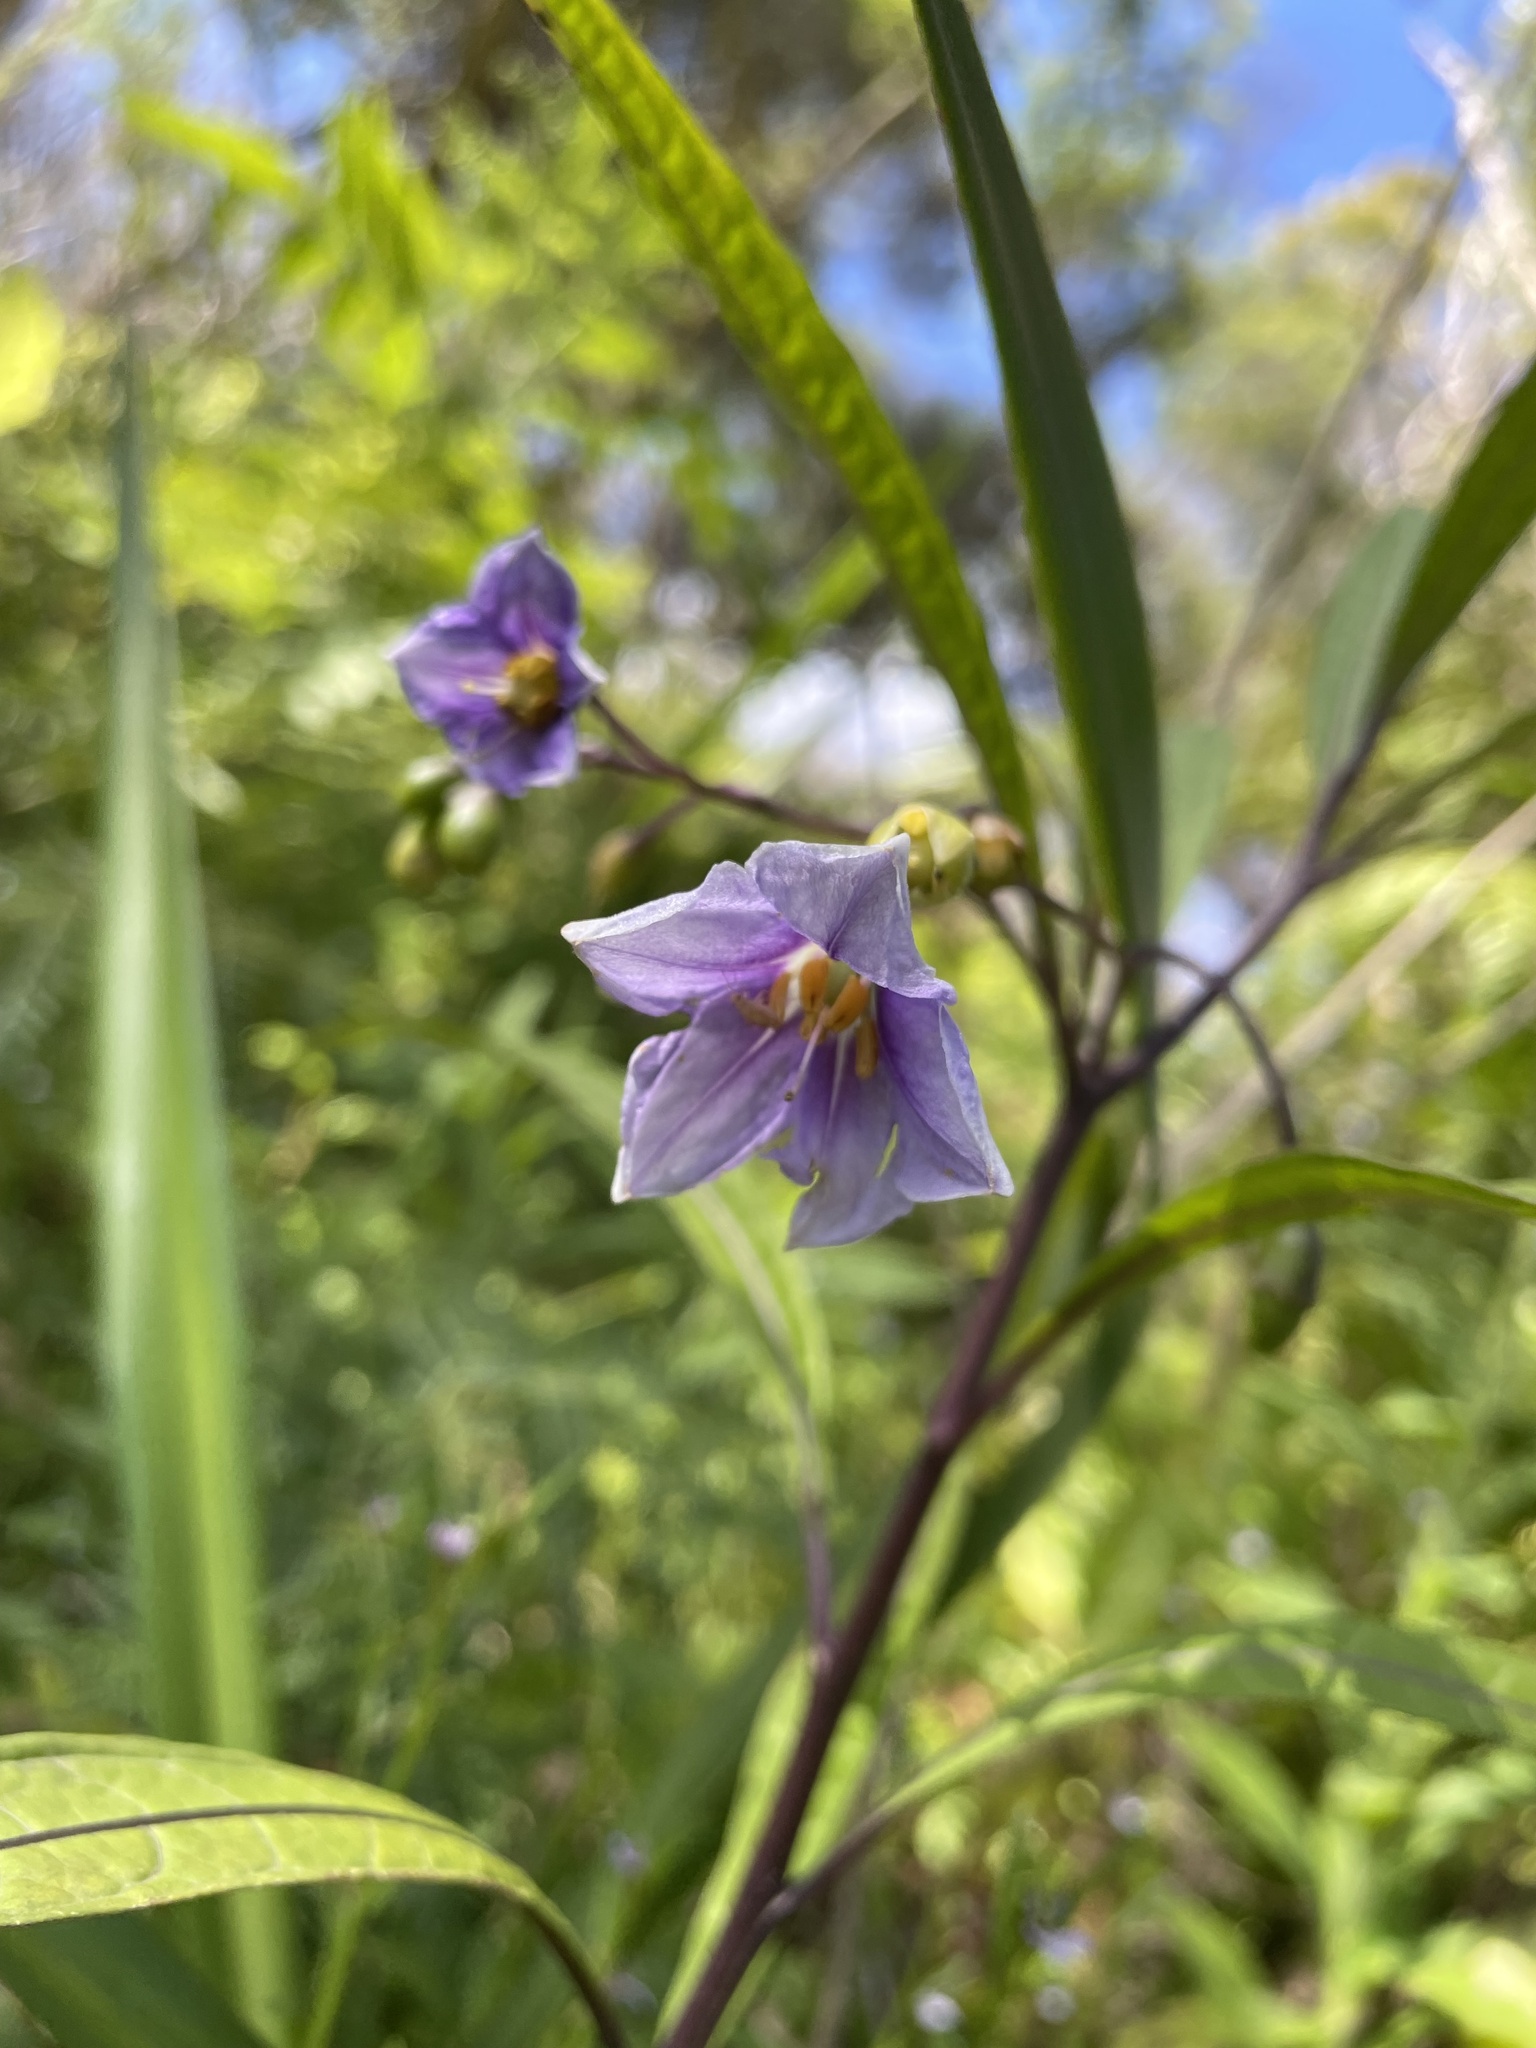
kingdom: Plantae
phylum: Tracheophyta
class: Magnoliopsida
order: Solanales
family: Solanaceae
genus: Solanum
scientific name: Solanum aviculare
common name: New zealand nightshade
